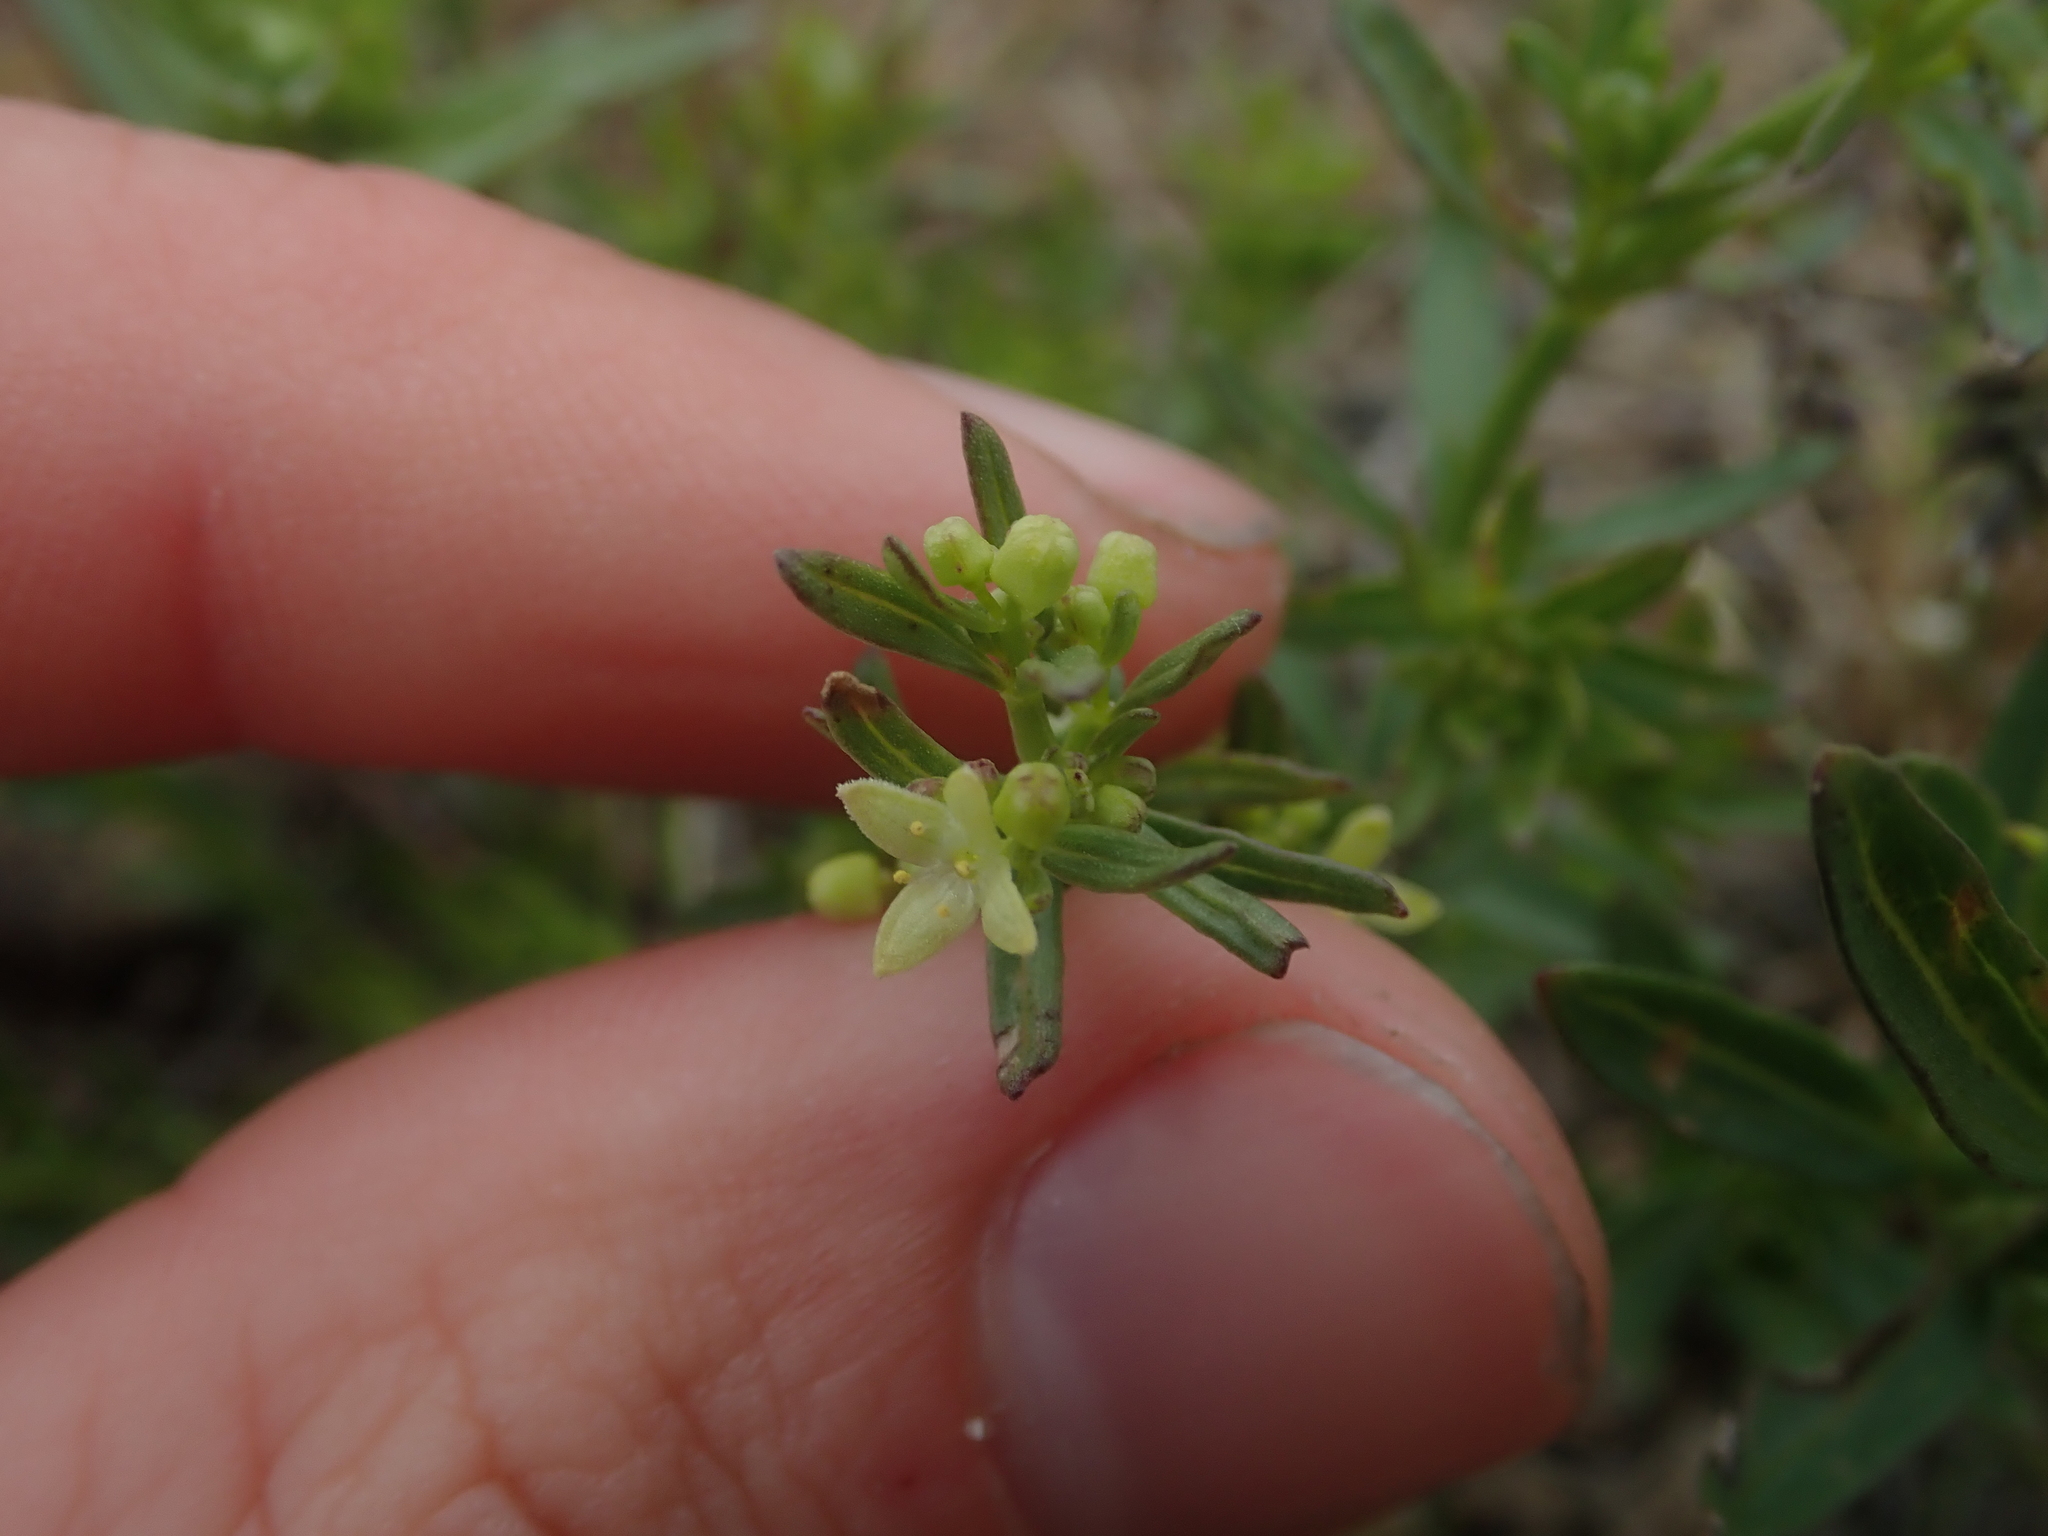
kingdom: Plantae
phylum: Tracheophyta
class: Magnoliopsida
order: Gentianales
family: Rubiaceae
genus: Galium
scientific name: Galium serpenticum
